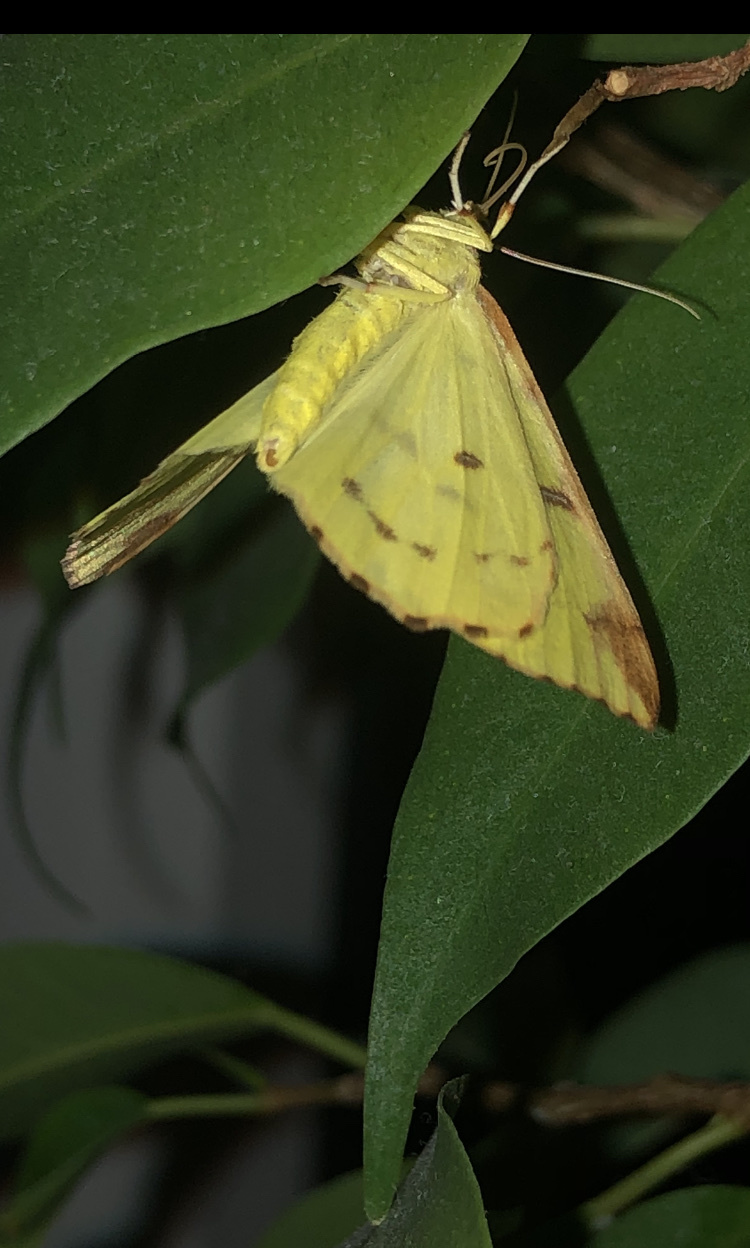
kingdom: Animalia
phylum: Arthropoda
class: Insecta
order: Lepidoptera
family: Geometridae
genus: Opisthograptis
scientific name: Opisthograptis luteolata
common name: Brimstone moth
